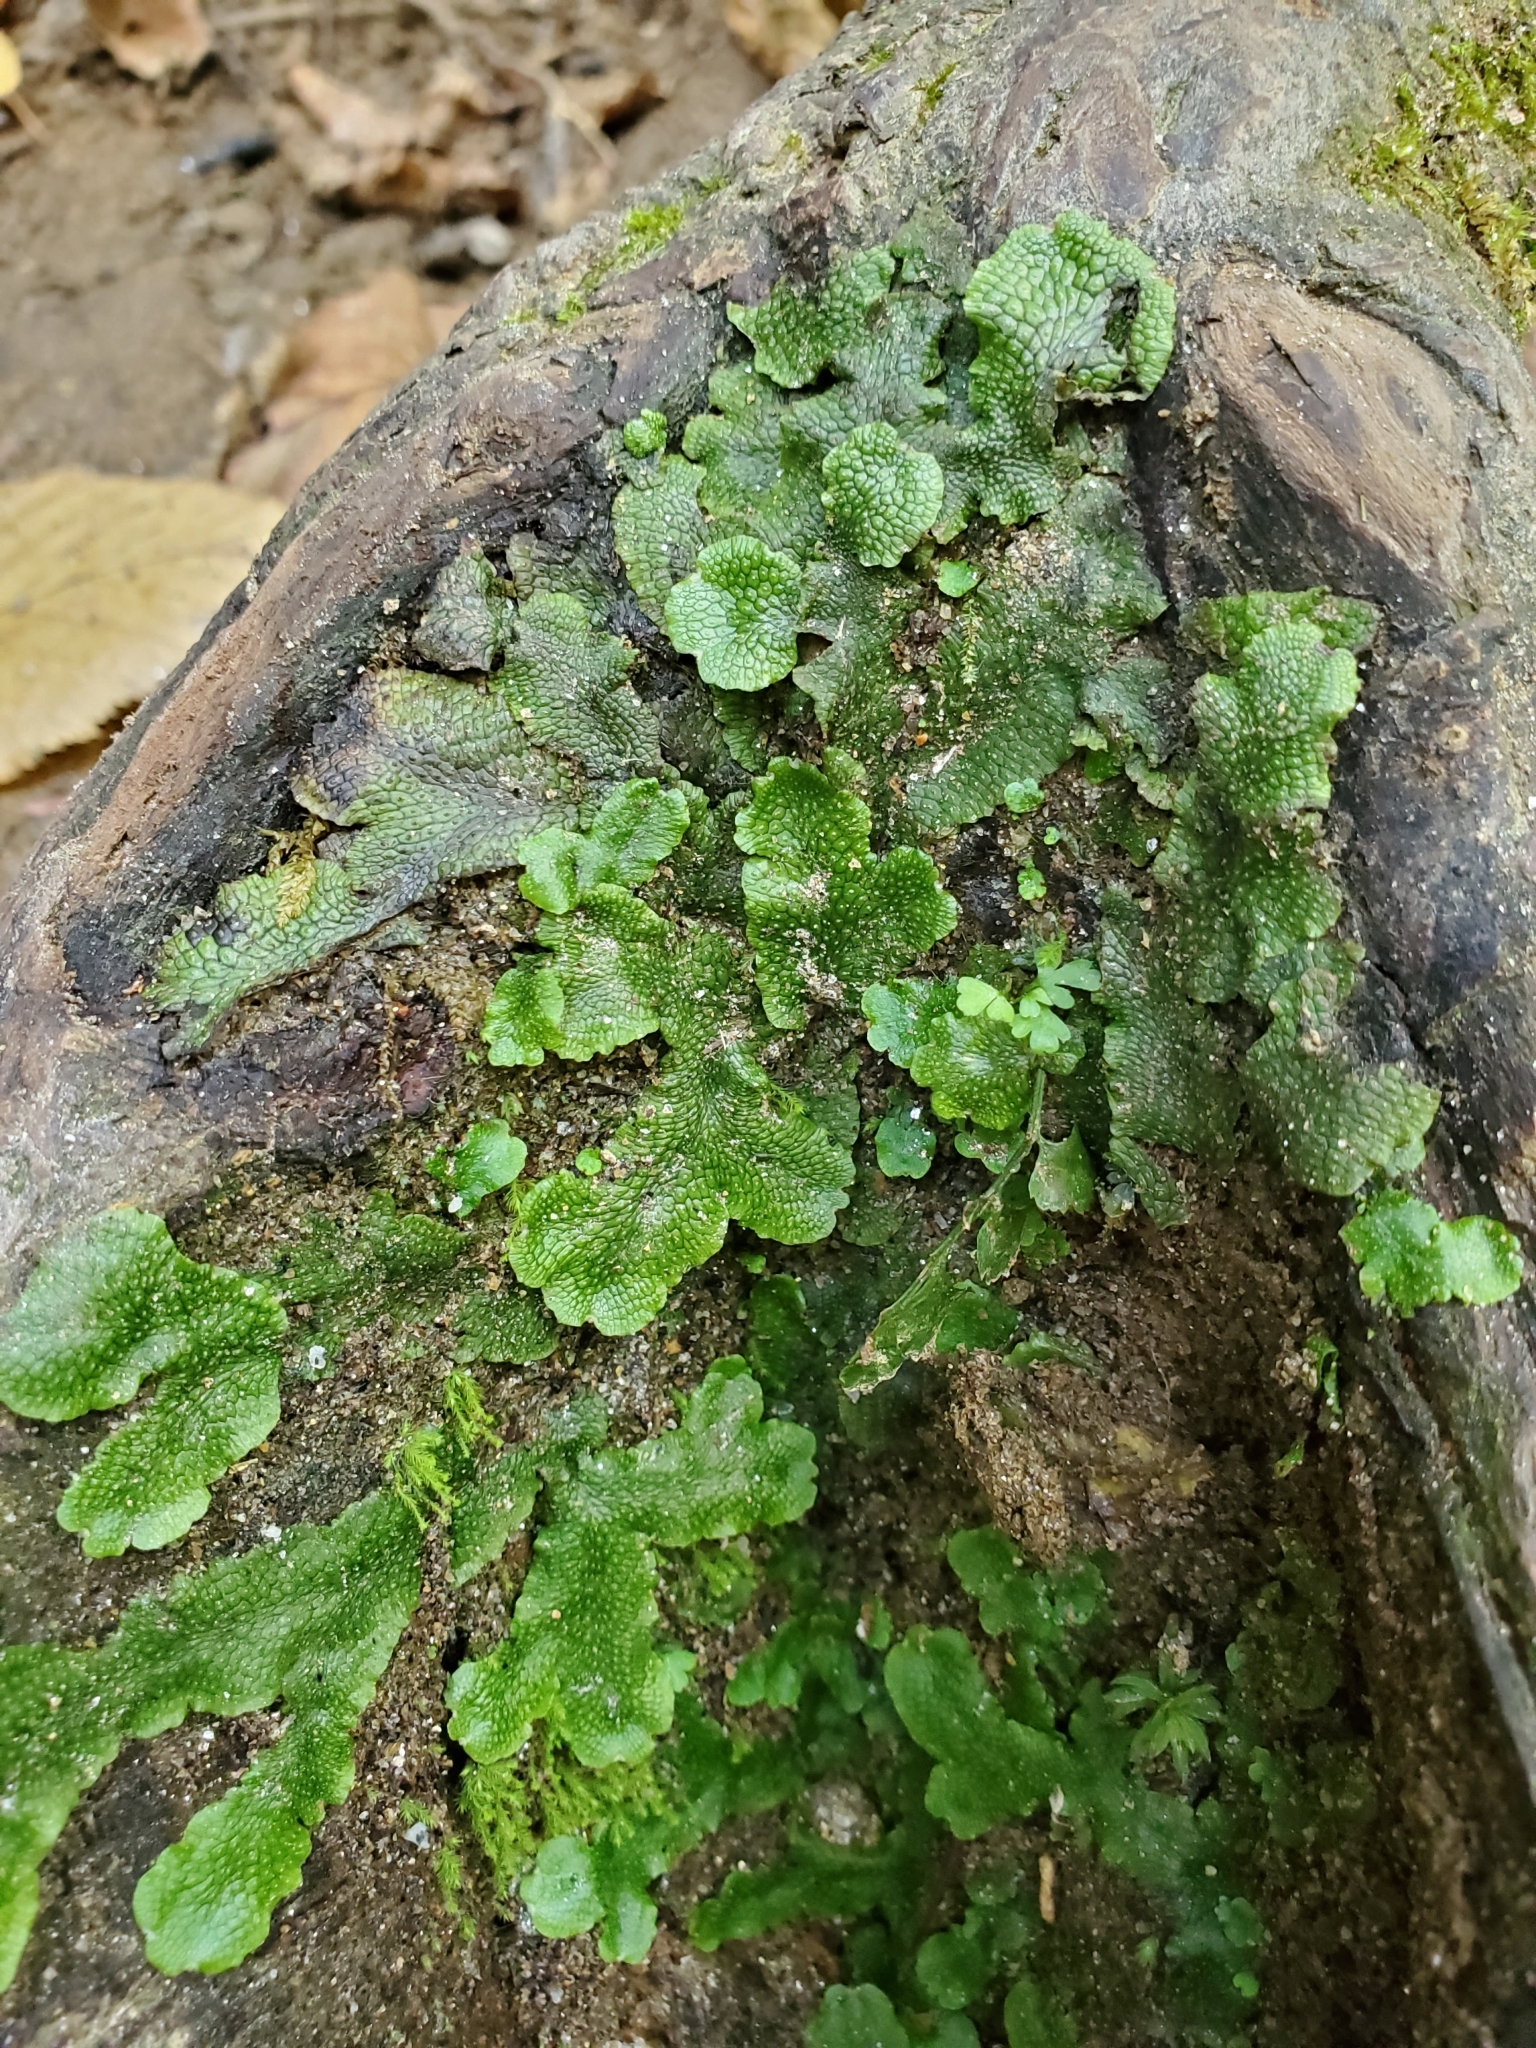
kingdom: Plantae
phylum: Marchantiophyta
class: Marchantiopsida
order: Marchantiales
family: Conocephalaceae
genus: Conocephalum
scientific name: Conocephalum salebrosum
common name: Cat-tongue liverwort
